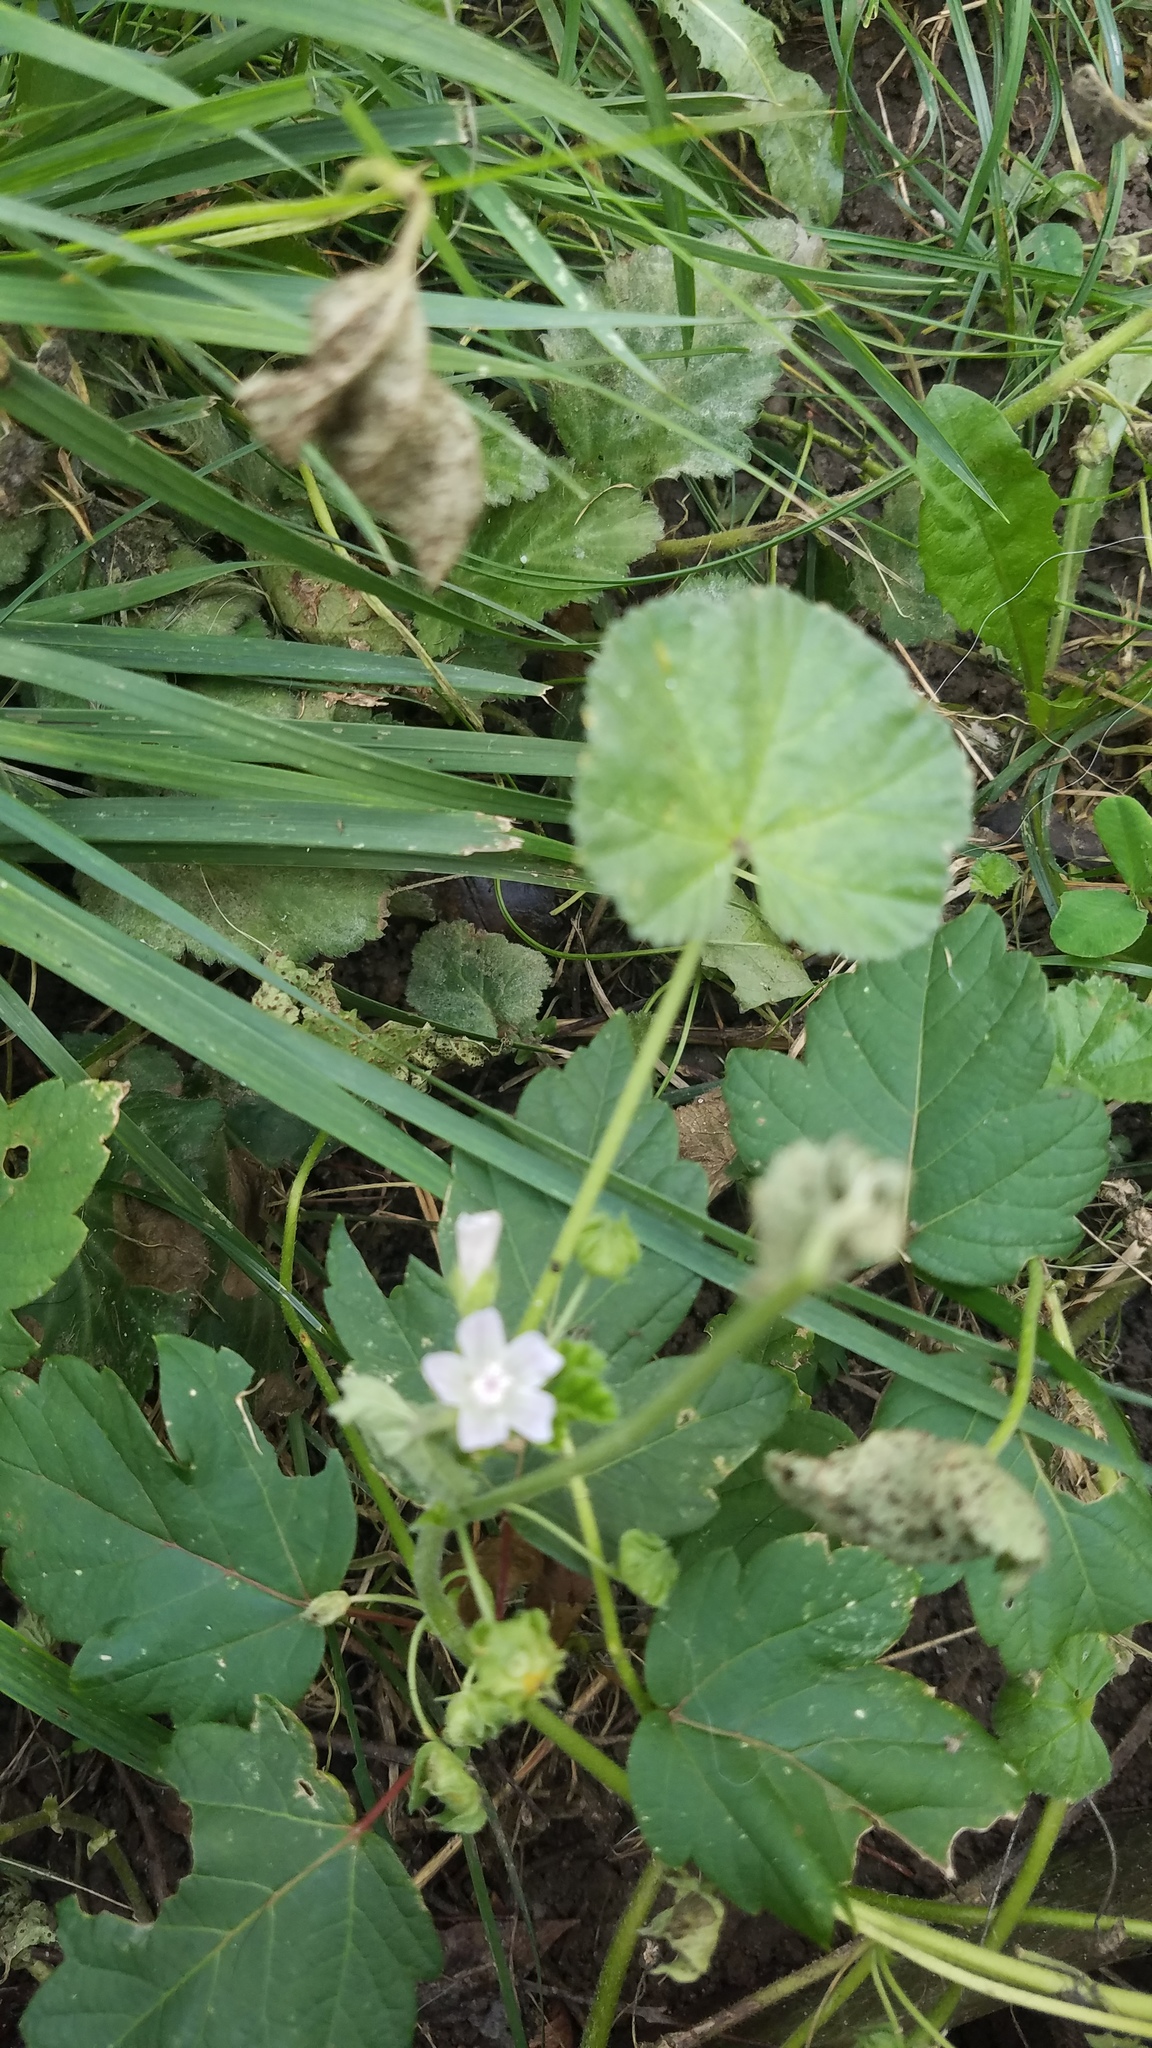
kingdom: Plantae
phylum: Tracheophyta
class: Magnoliopsida
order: Malvales
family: Malvaceae
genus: Malva
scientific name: Malva neglecta
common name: Common mallow
